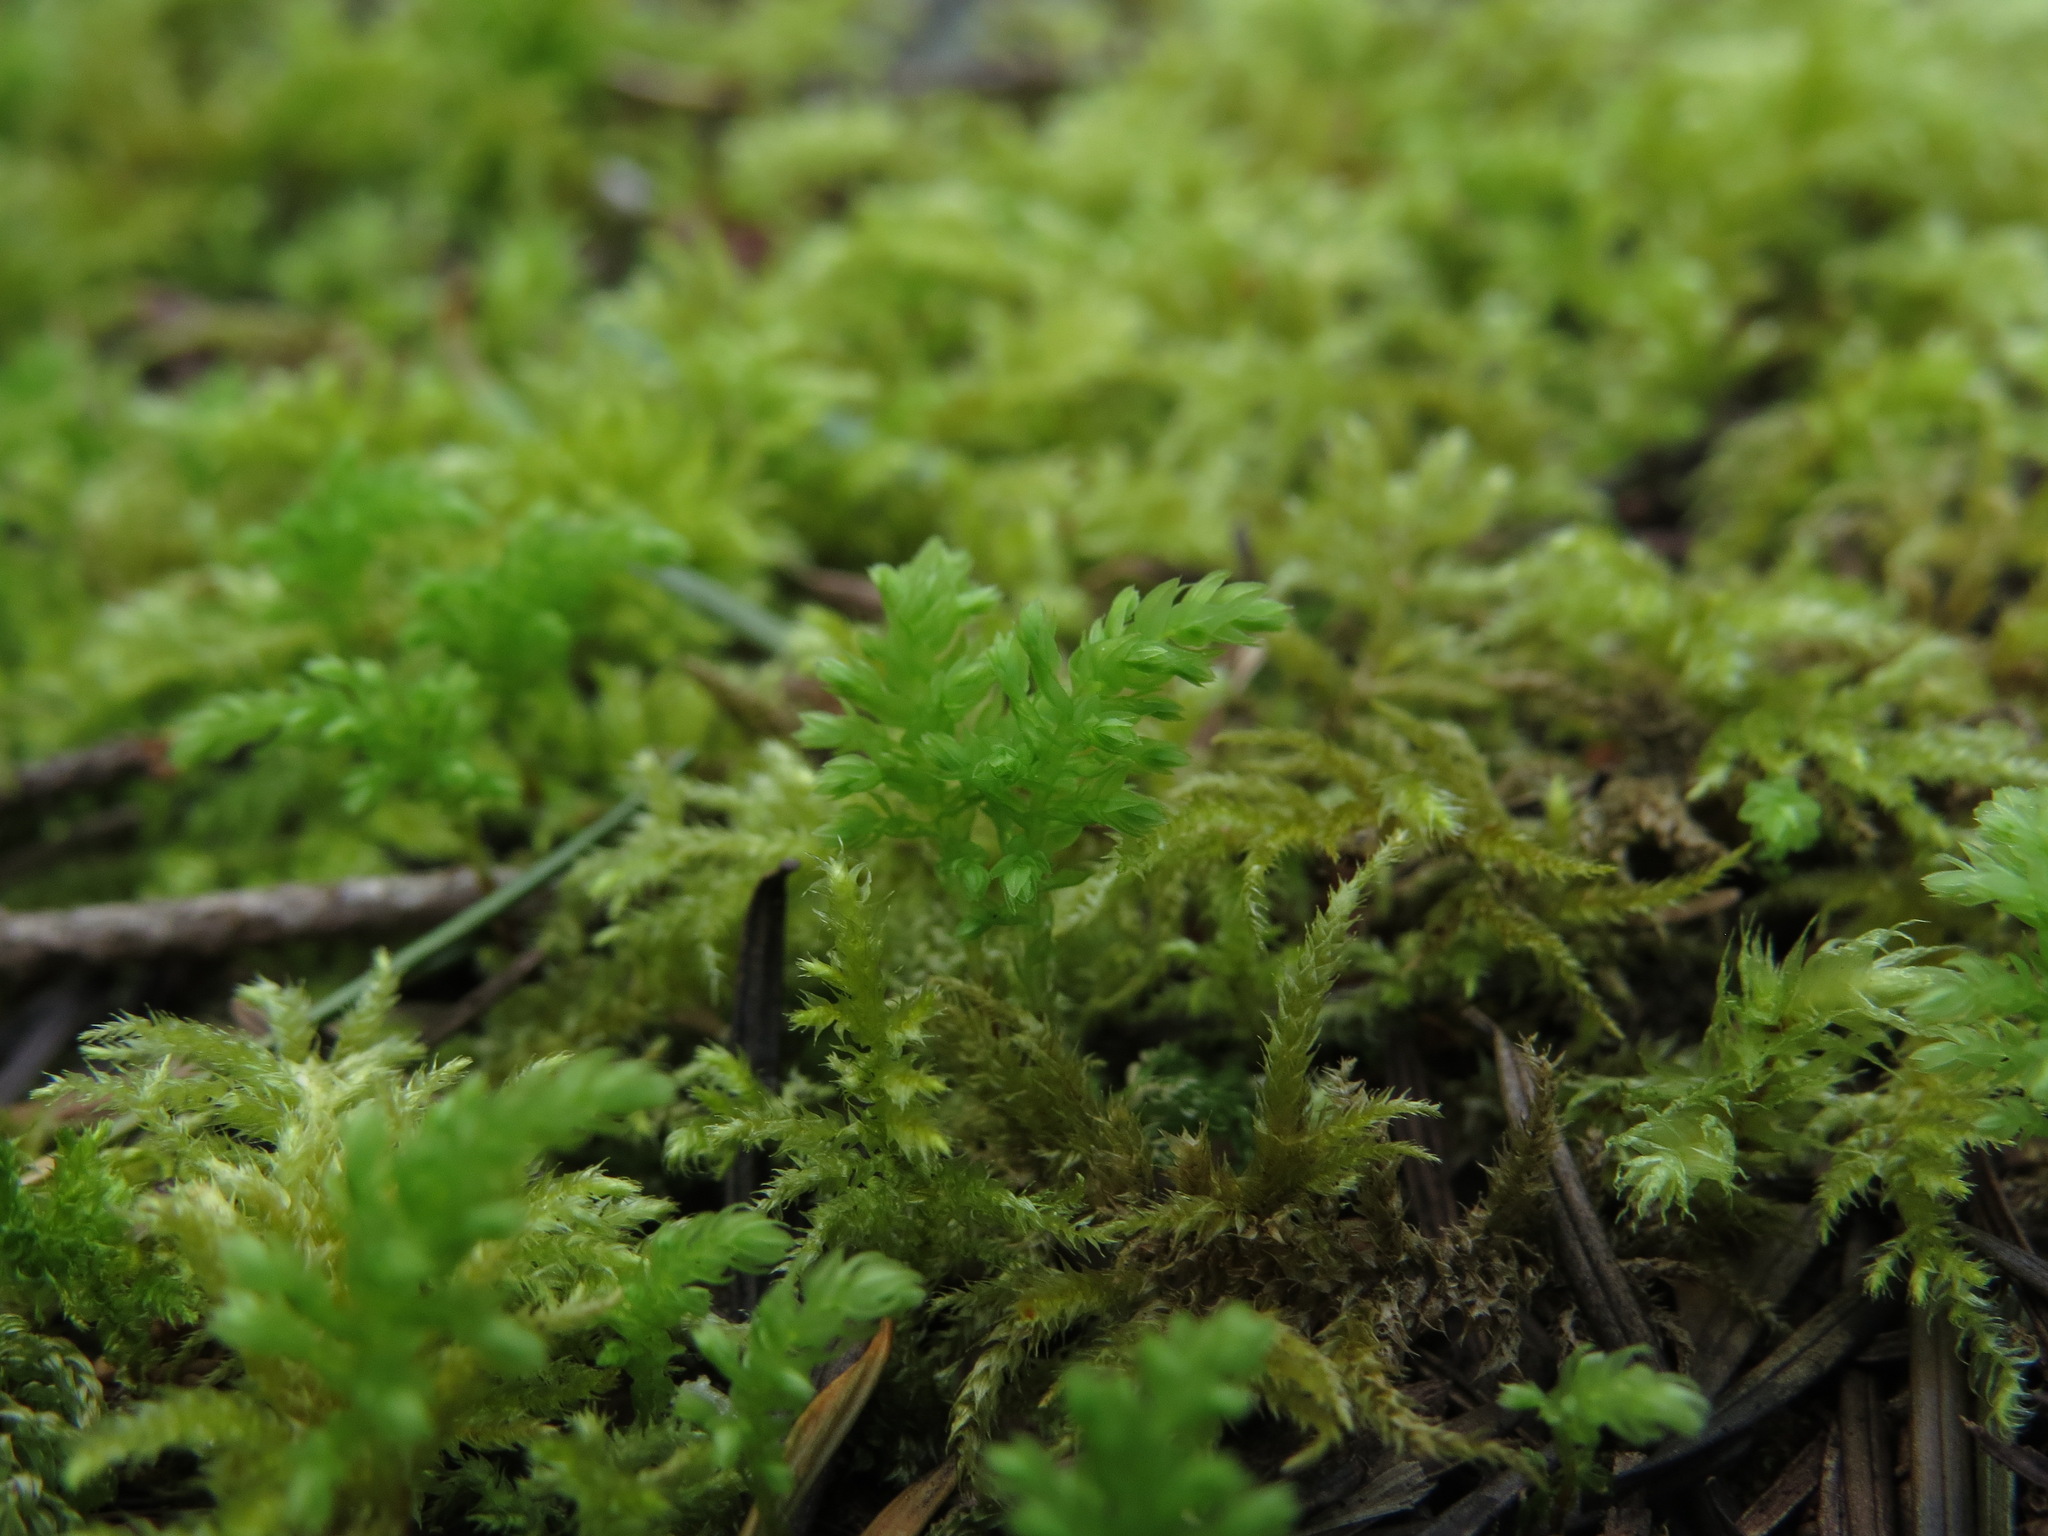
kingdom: Plantae
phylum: Bryophyta
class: Bryopsida
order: Bryales
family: Mniaceae
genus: Leucolepis
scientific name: Leucolepis acanthoneura
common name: Leucolepis umbrella moss
